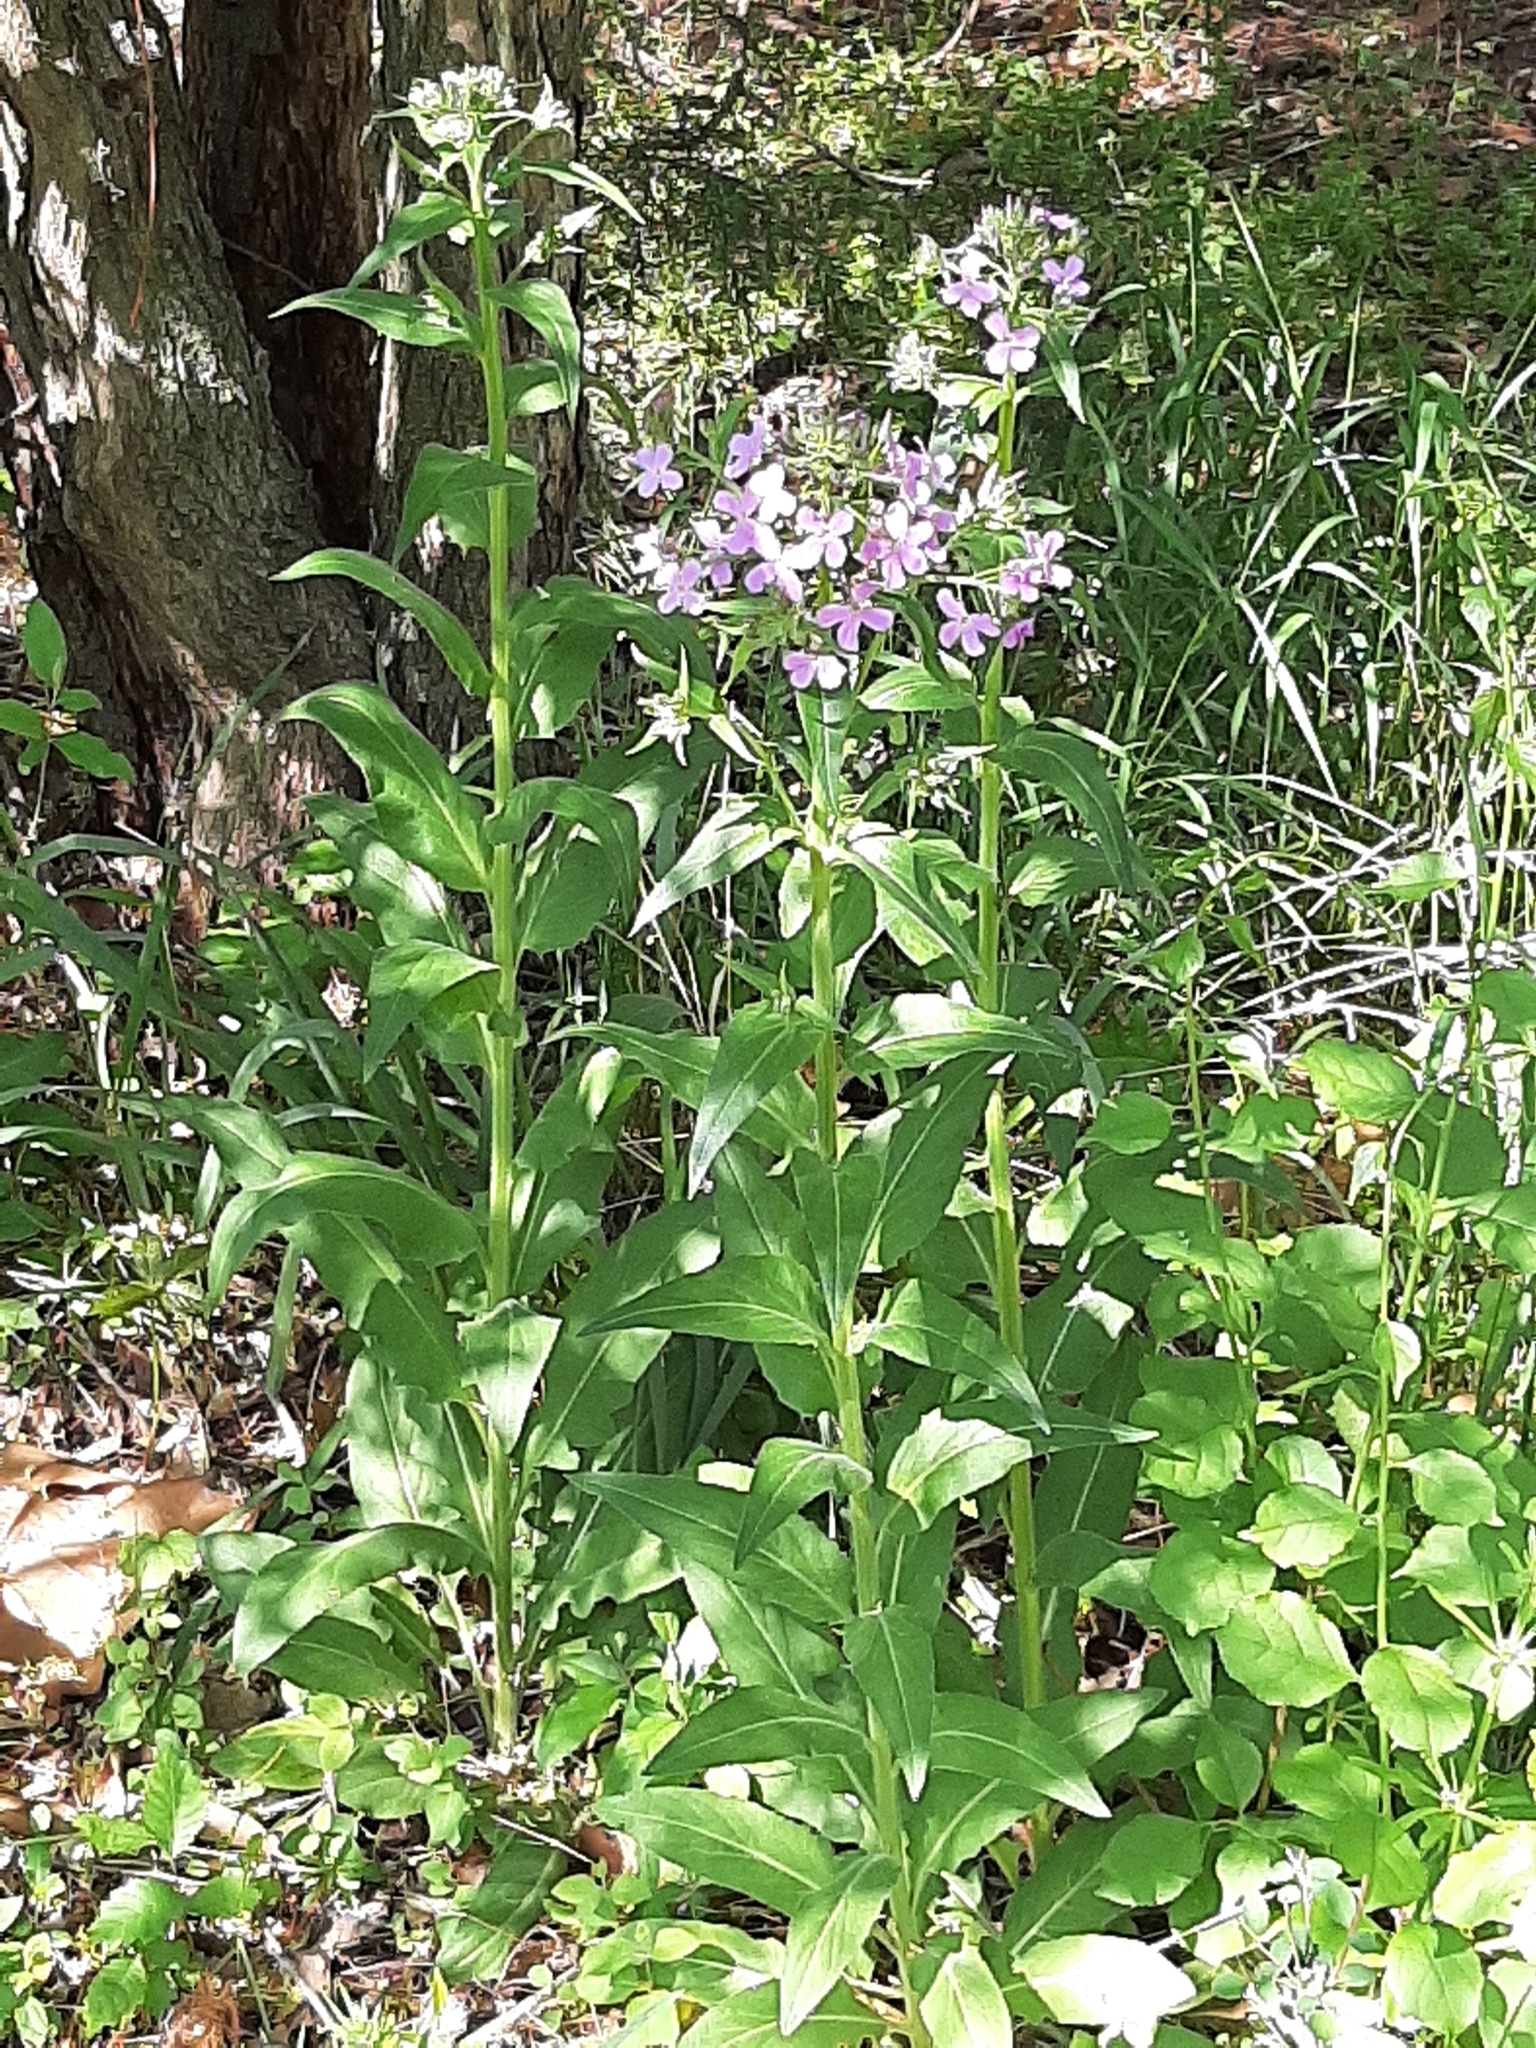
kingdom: Plantae
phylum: Tracheophyta
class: Magnoliopsida
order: Brassicales
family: Brassicaceae
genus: Hesperis
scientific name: Hesperis matronalis
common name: Dame's-violet
